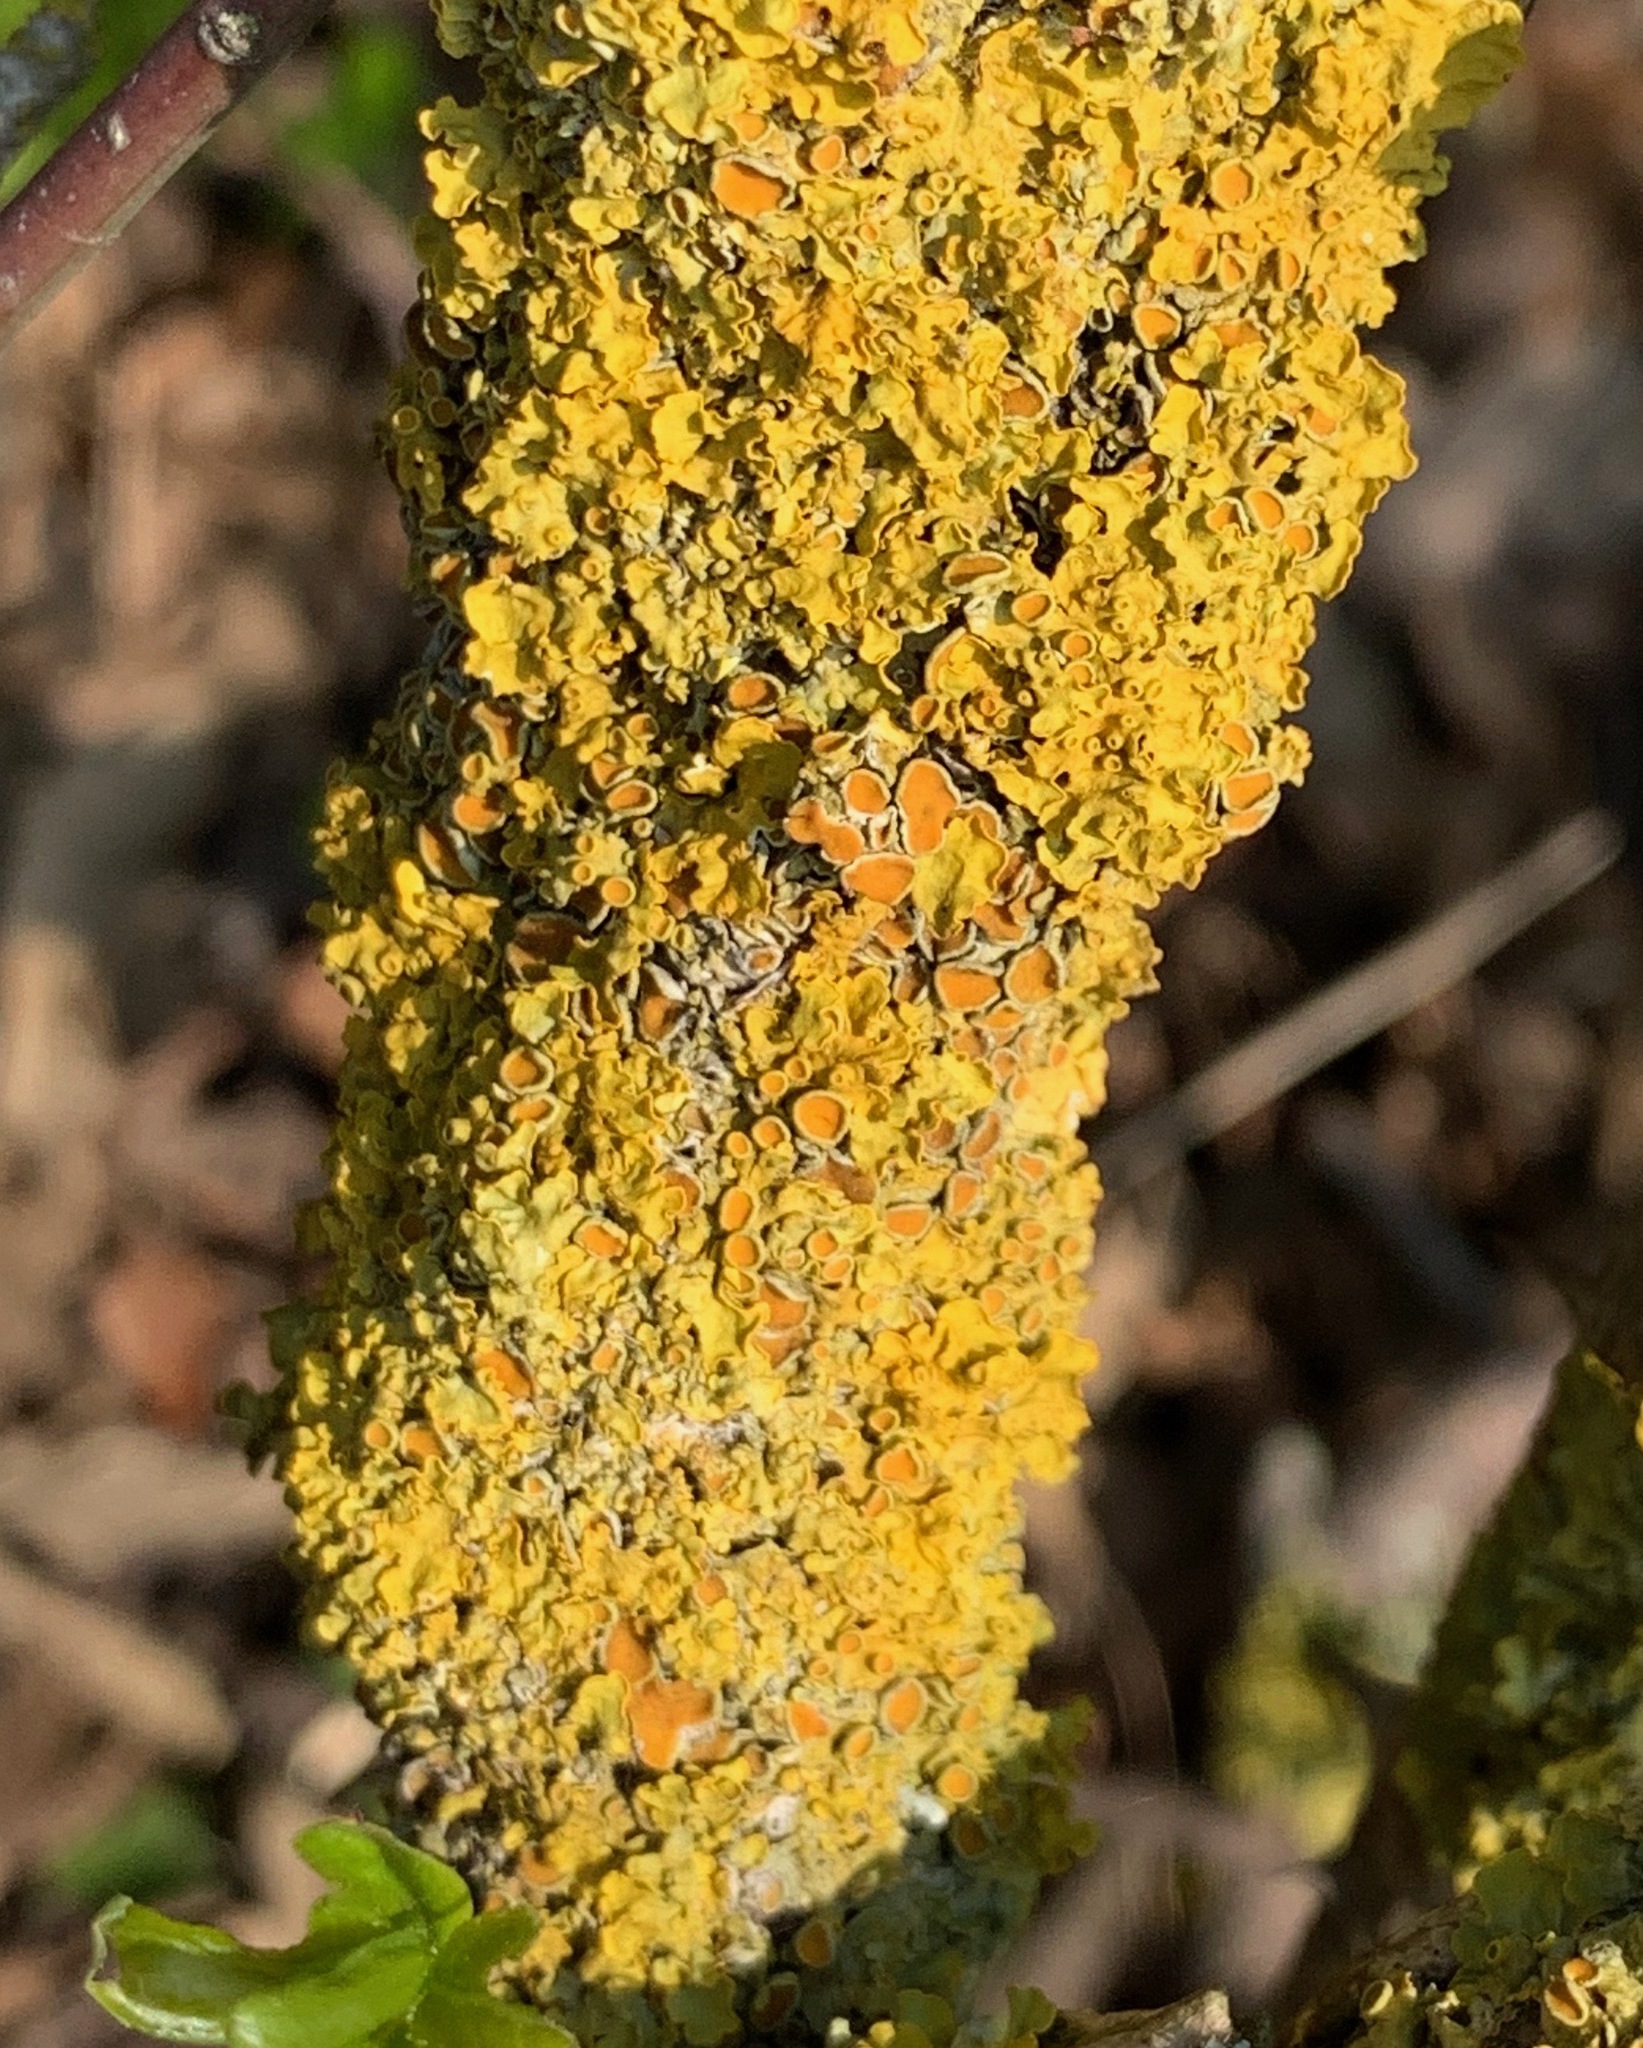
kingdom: Fungi
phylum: Ascomycota
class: Lecanoromycetes
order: Teloschistales
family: Teloschistaceae
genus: Xanthoria
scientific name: Xanthoria parietina
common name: Common orange lichen
